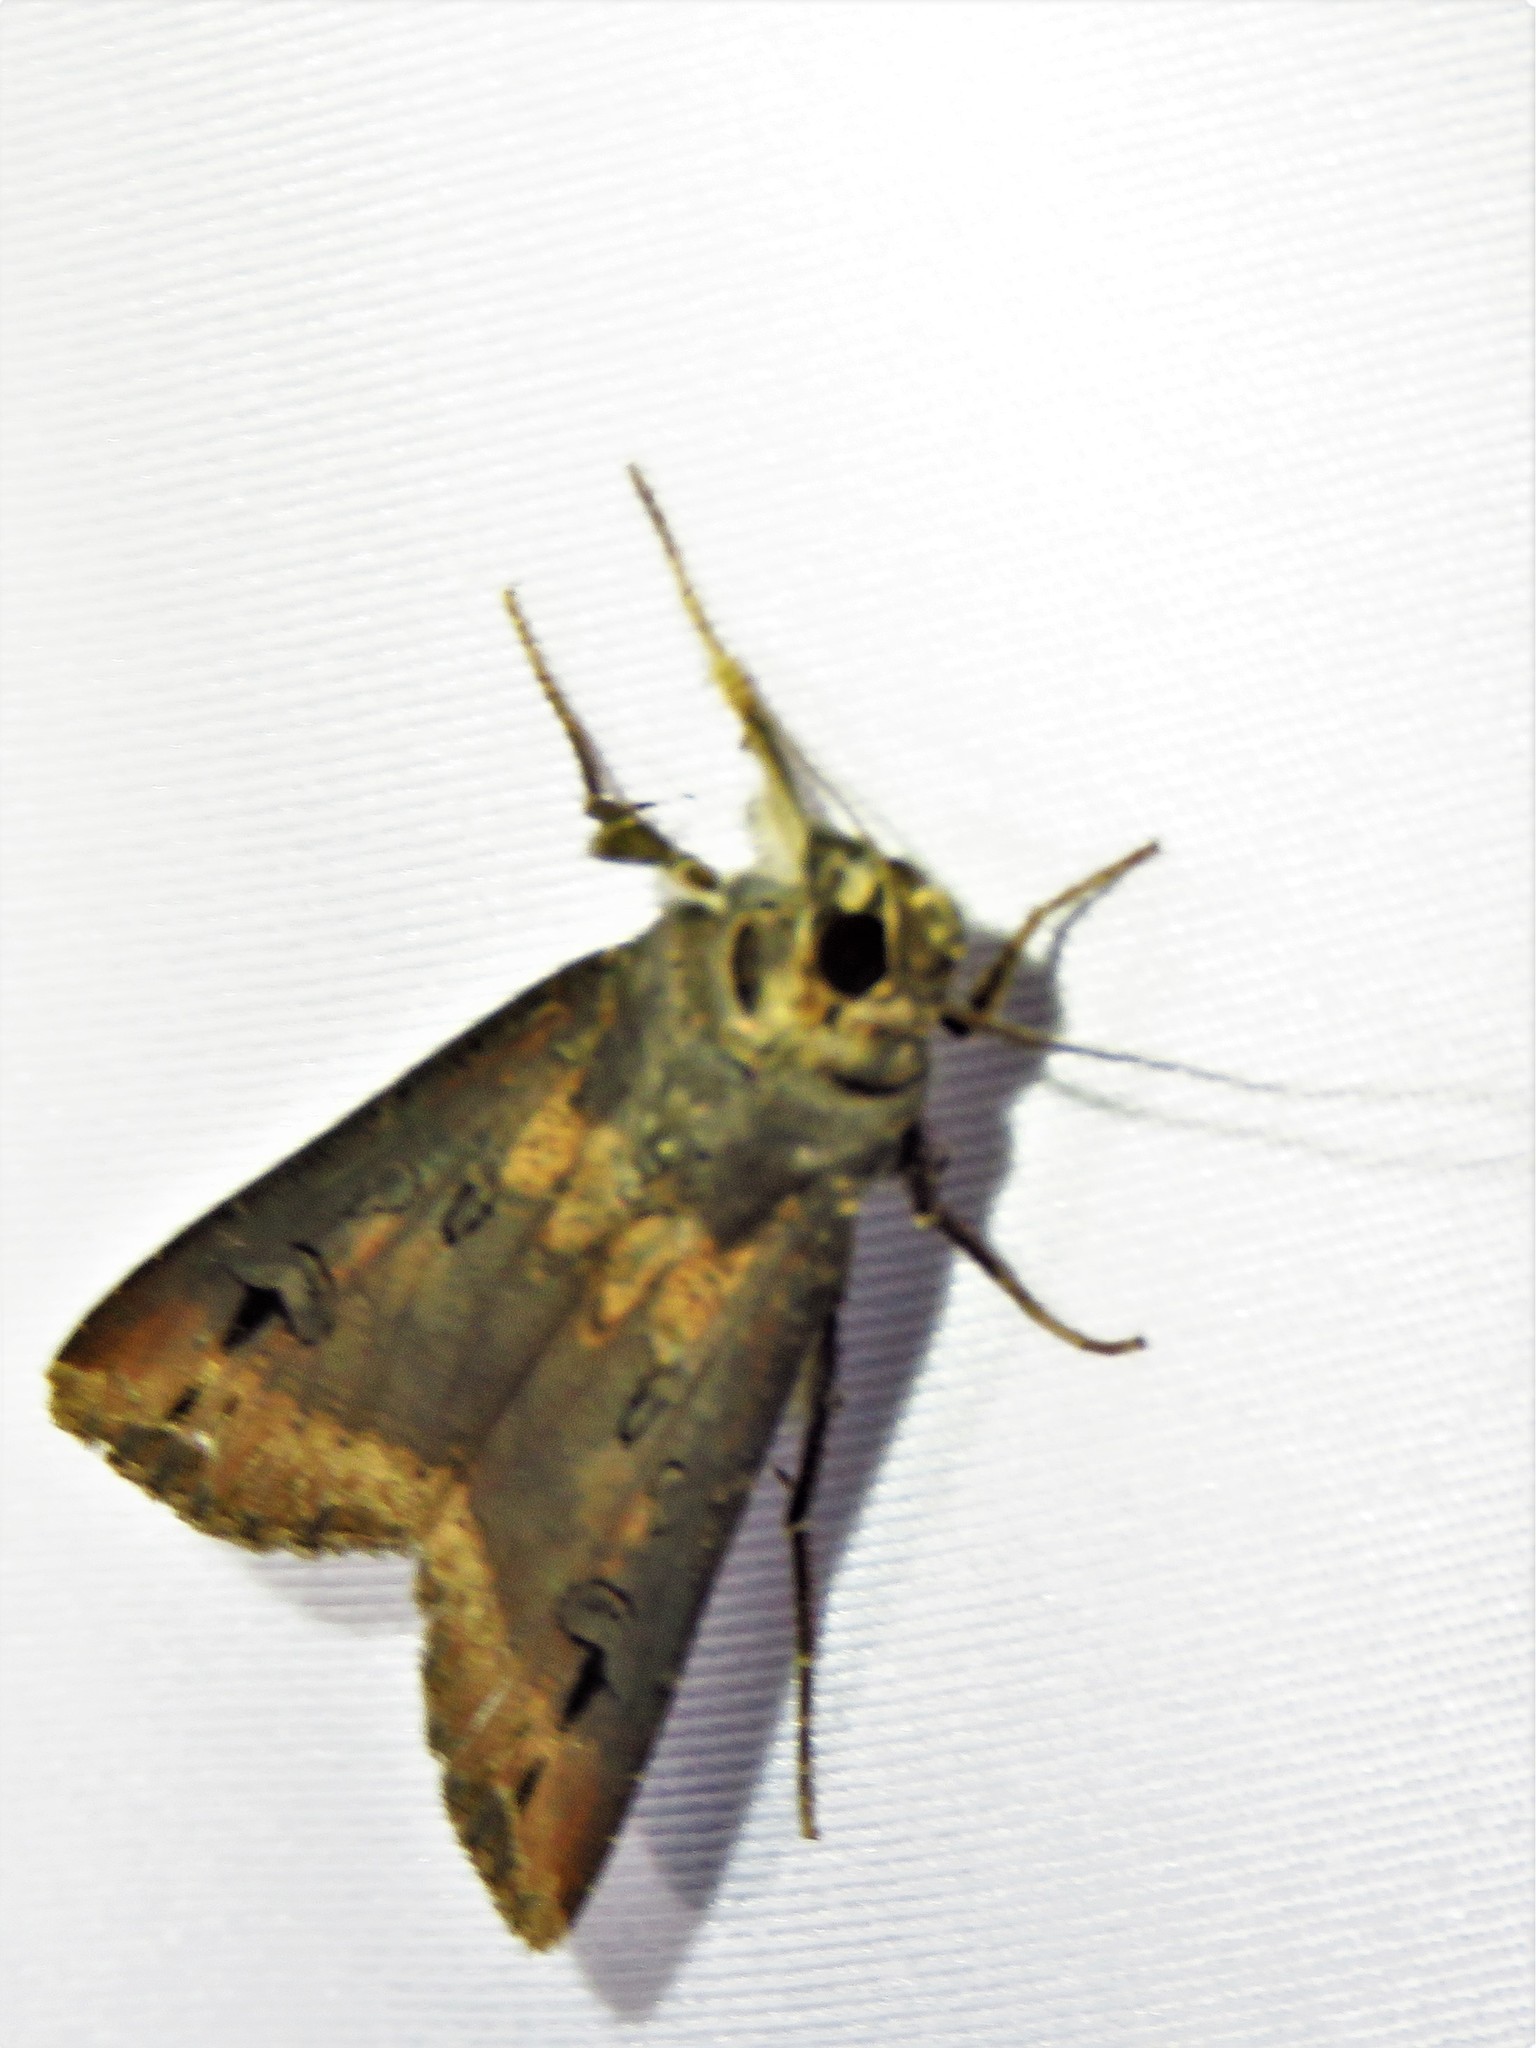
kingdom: Animalia
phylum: Arthropoda
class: Insecta
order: Lepidoptera
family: Noctuidae
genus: Agrotis
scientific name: Agrotis ipsilon
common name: Dark sword-grass
